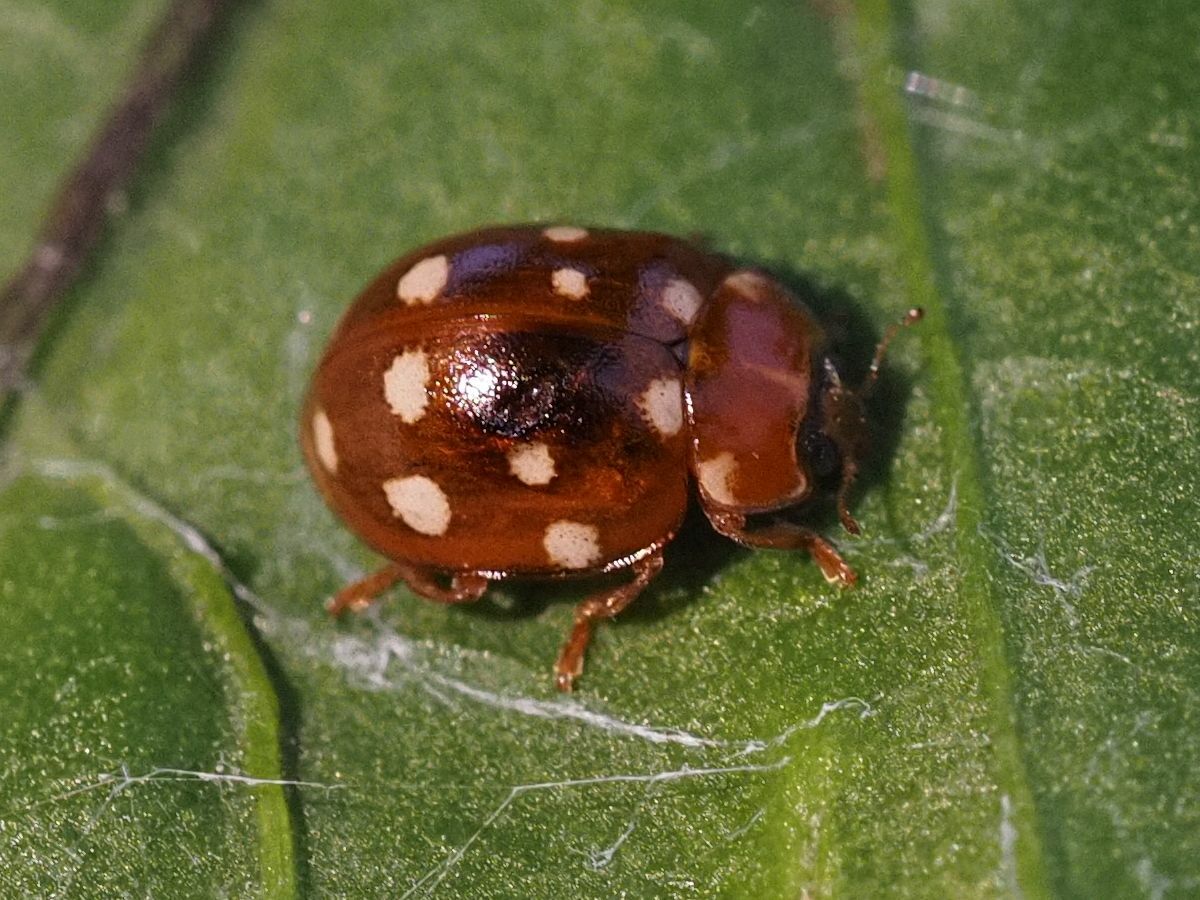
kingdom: Animalia
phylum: Arthropoda
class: Insecta
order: Coleoptera
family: Coccinellidae
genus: Calvia
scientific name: Calvia quatuordecimguttata
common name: Cream-spot ladybird
